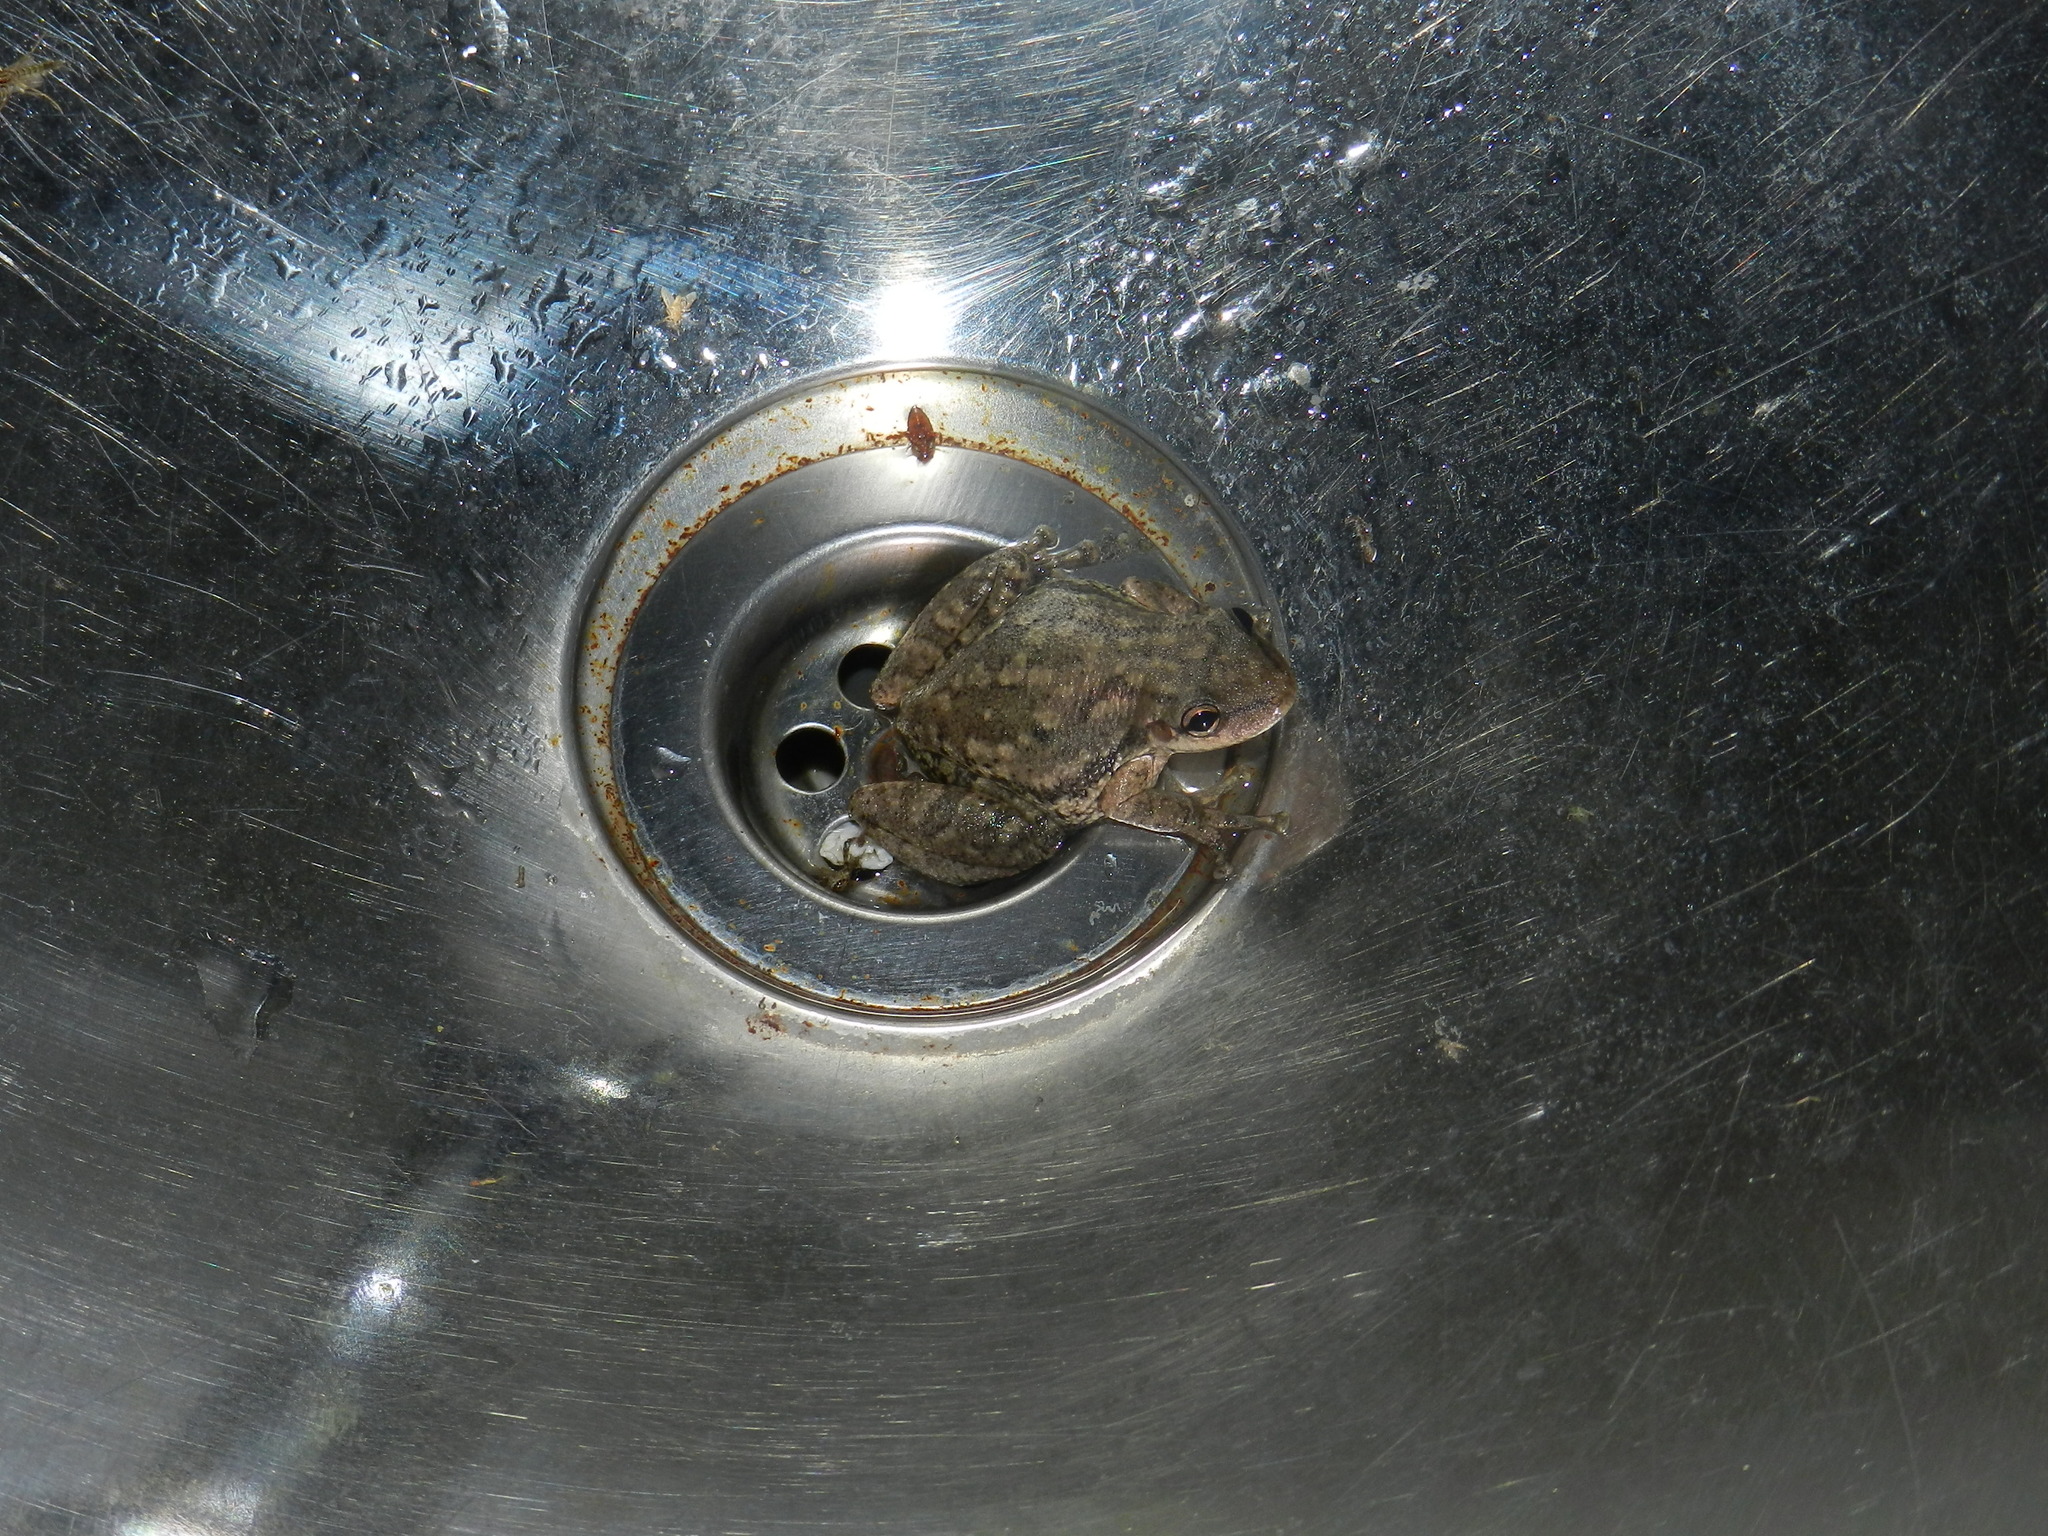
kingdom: Animalia
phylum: Chordata
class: Amphibia
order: Anura
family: Hylidae
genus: Scinax
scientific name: Scinax nasicus
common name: Lesser snouted treefrog
